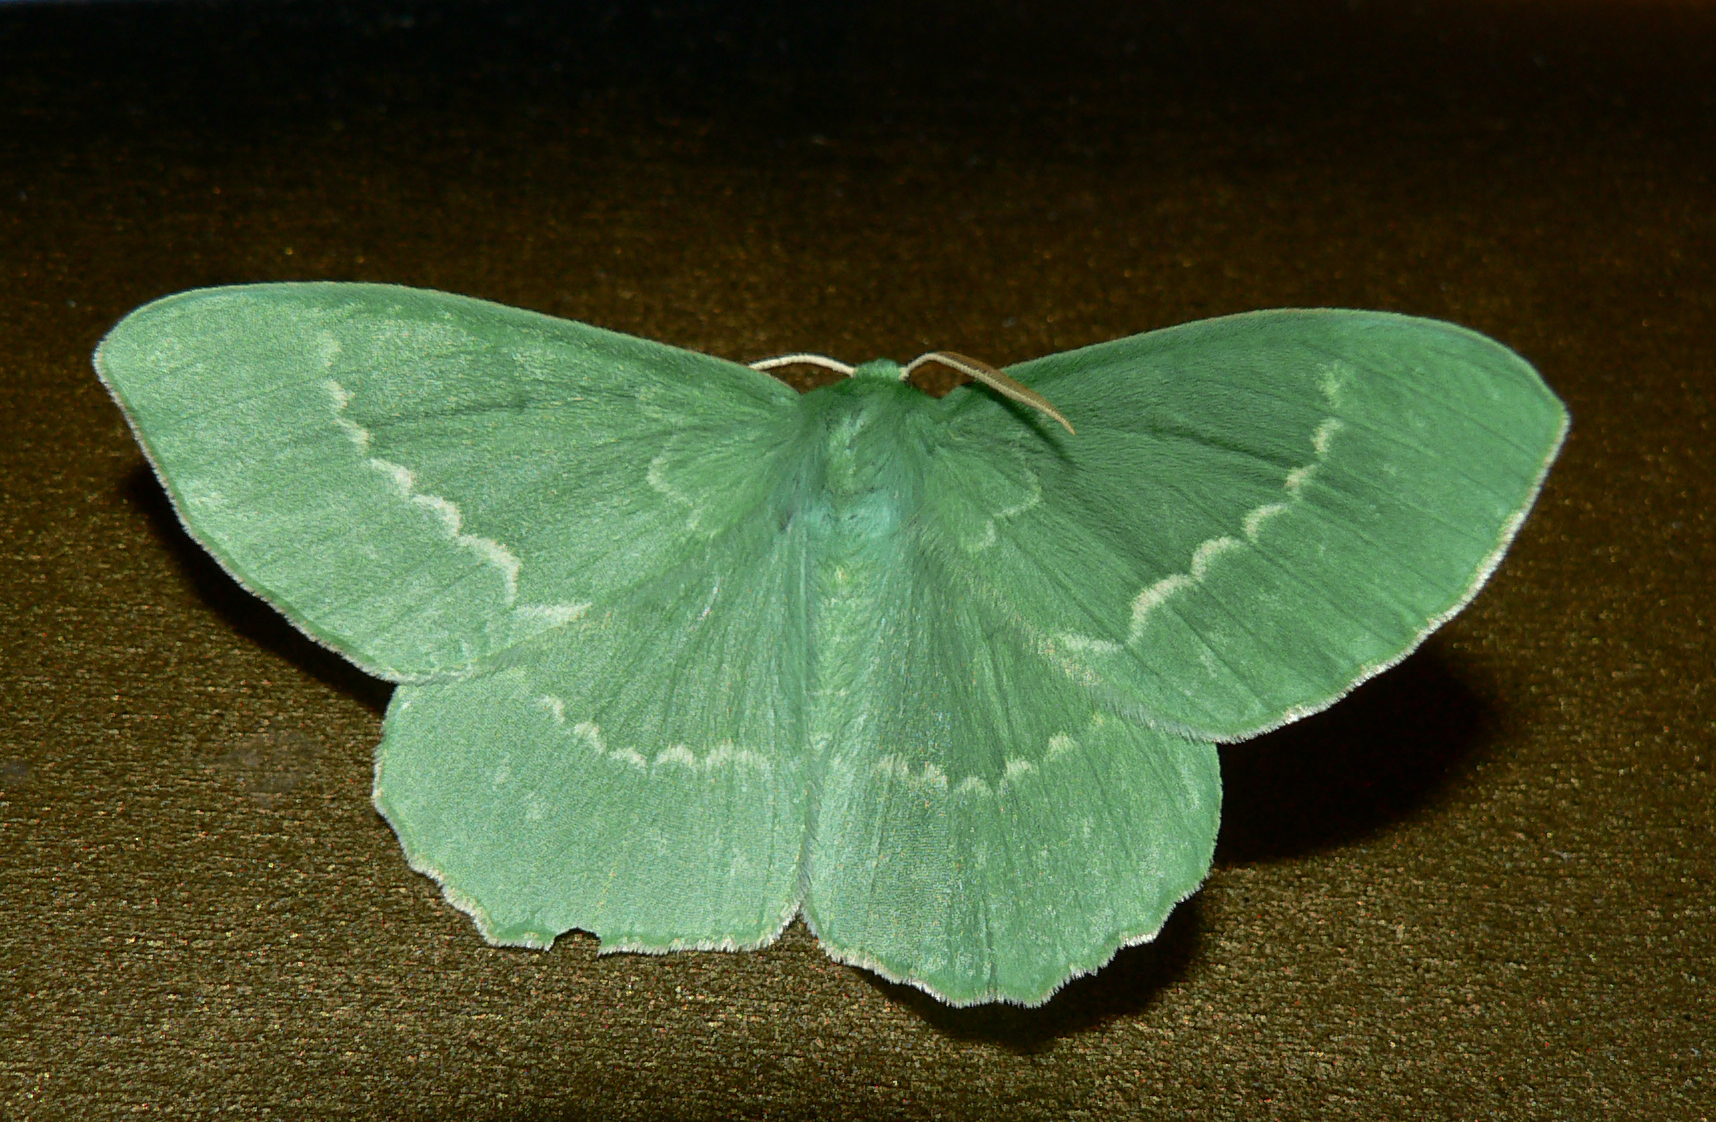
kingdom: Animalia
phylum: Arthropoda
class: Insecta
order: Lepidoptera
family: Geometridae
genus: Geometra
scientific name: Geometra papilionaria
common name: Large emerald
